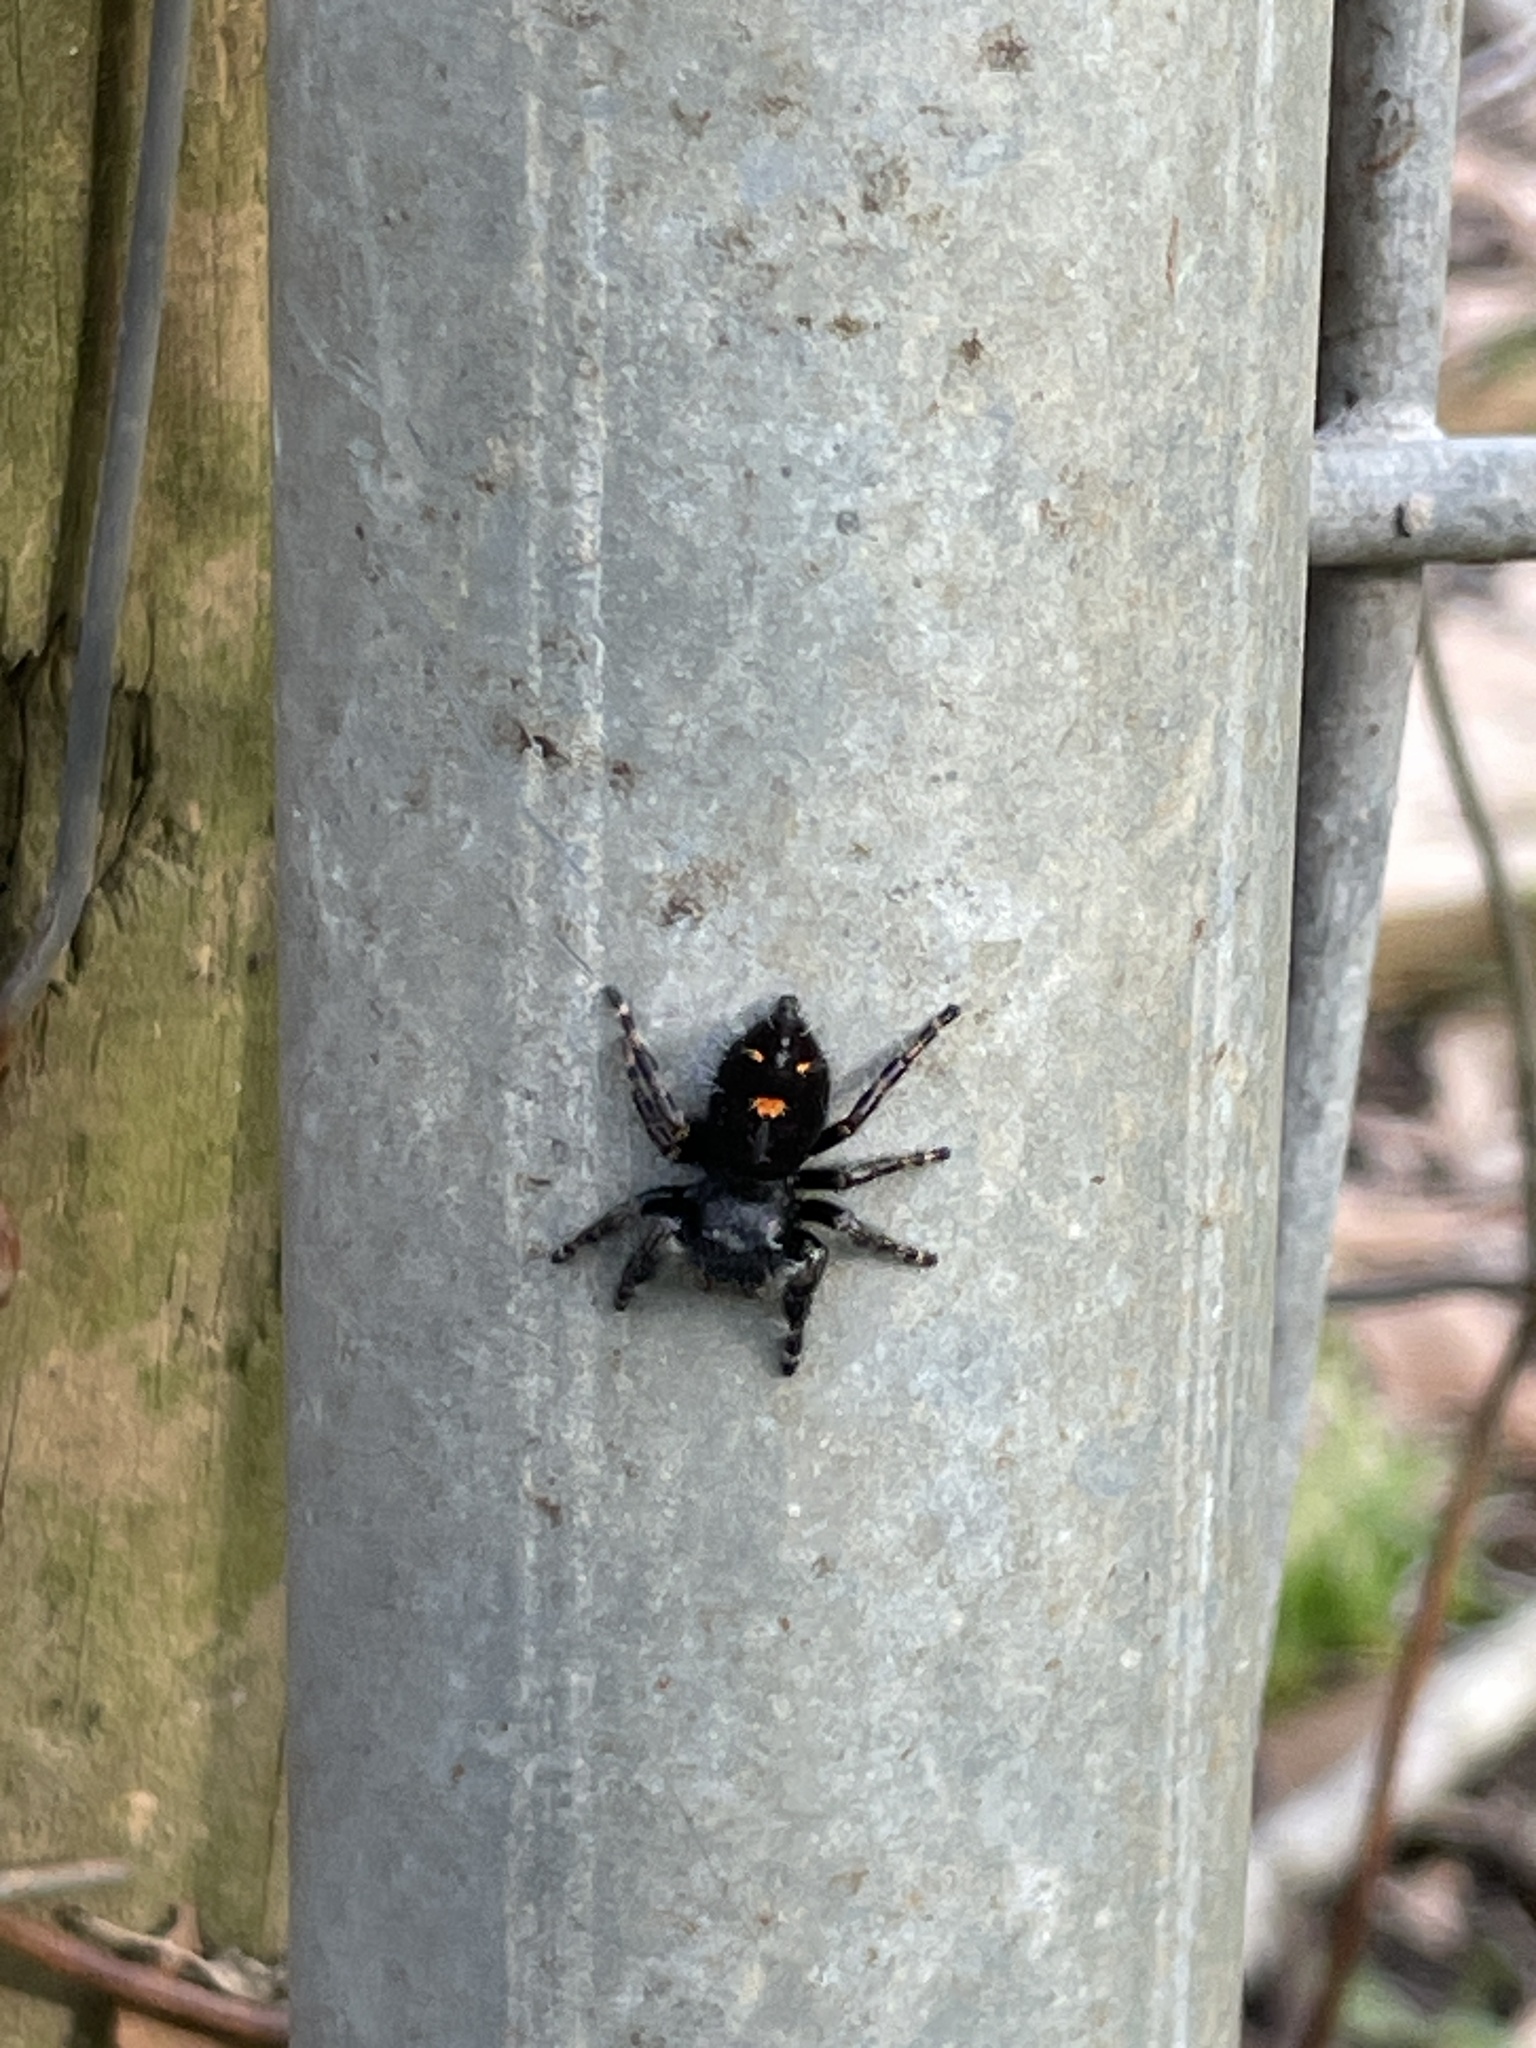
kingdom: Animalia
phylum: Arthropoda
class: Arachnida
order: Araneae
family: Salticidae
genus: Phidippus
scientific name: Phidippus audax
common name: Bold jumper
